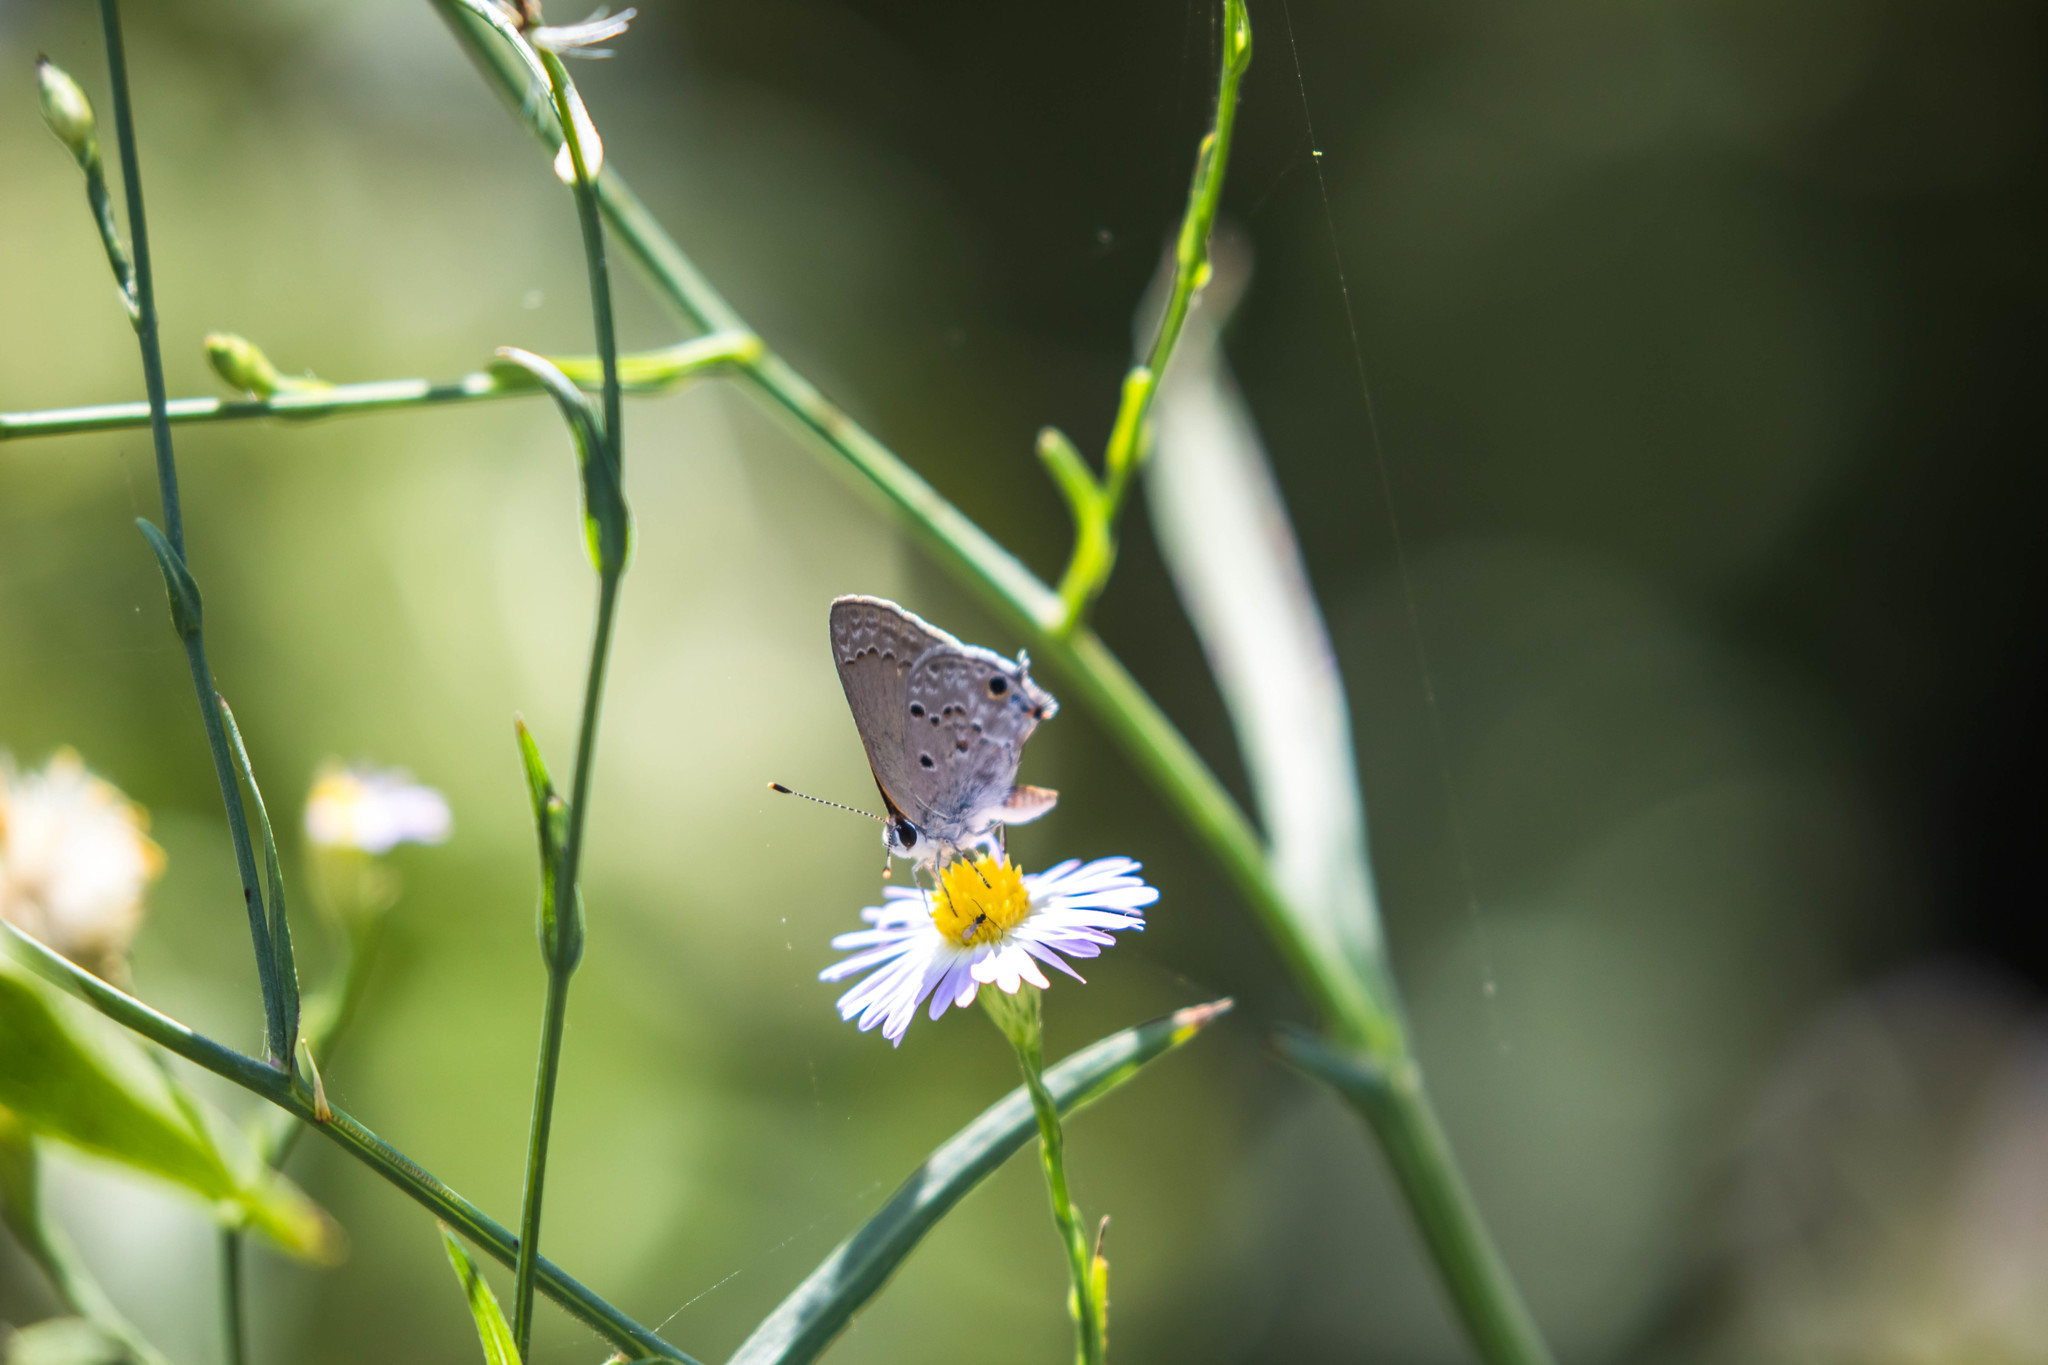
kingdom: Animalia
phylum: Arthropoda
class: Insecta
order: Lepidoptera
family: Lycaenidae
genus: Callicista
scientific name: Callicista columella
